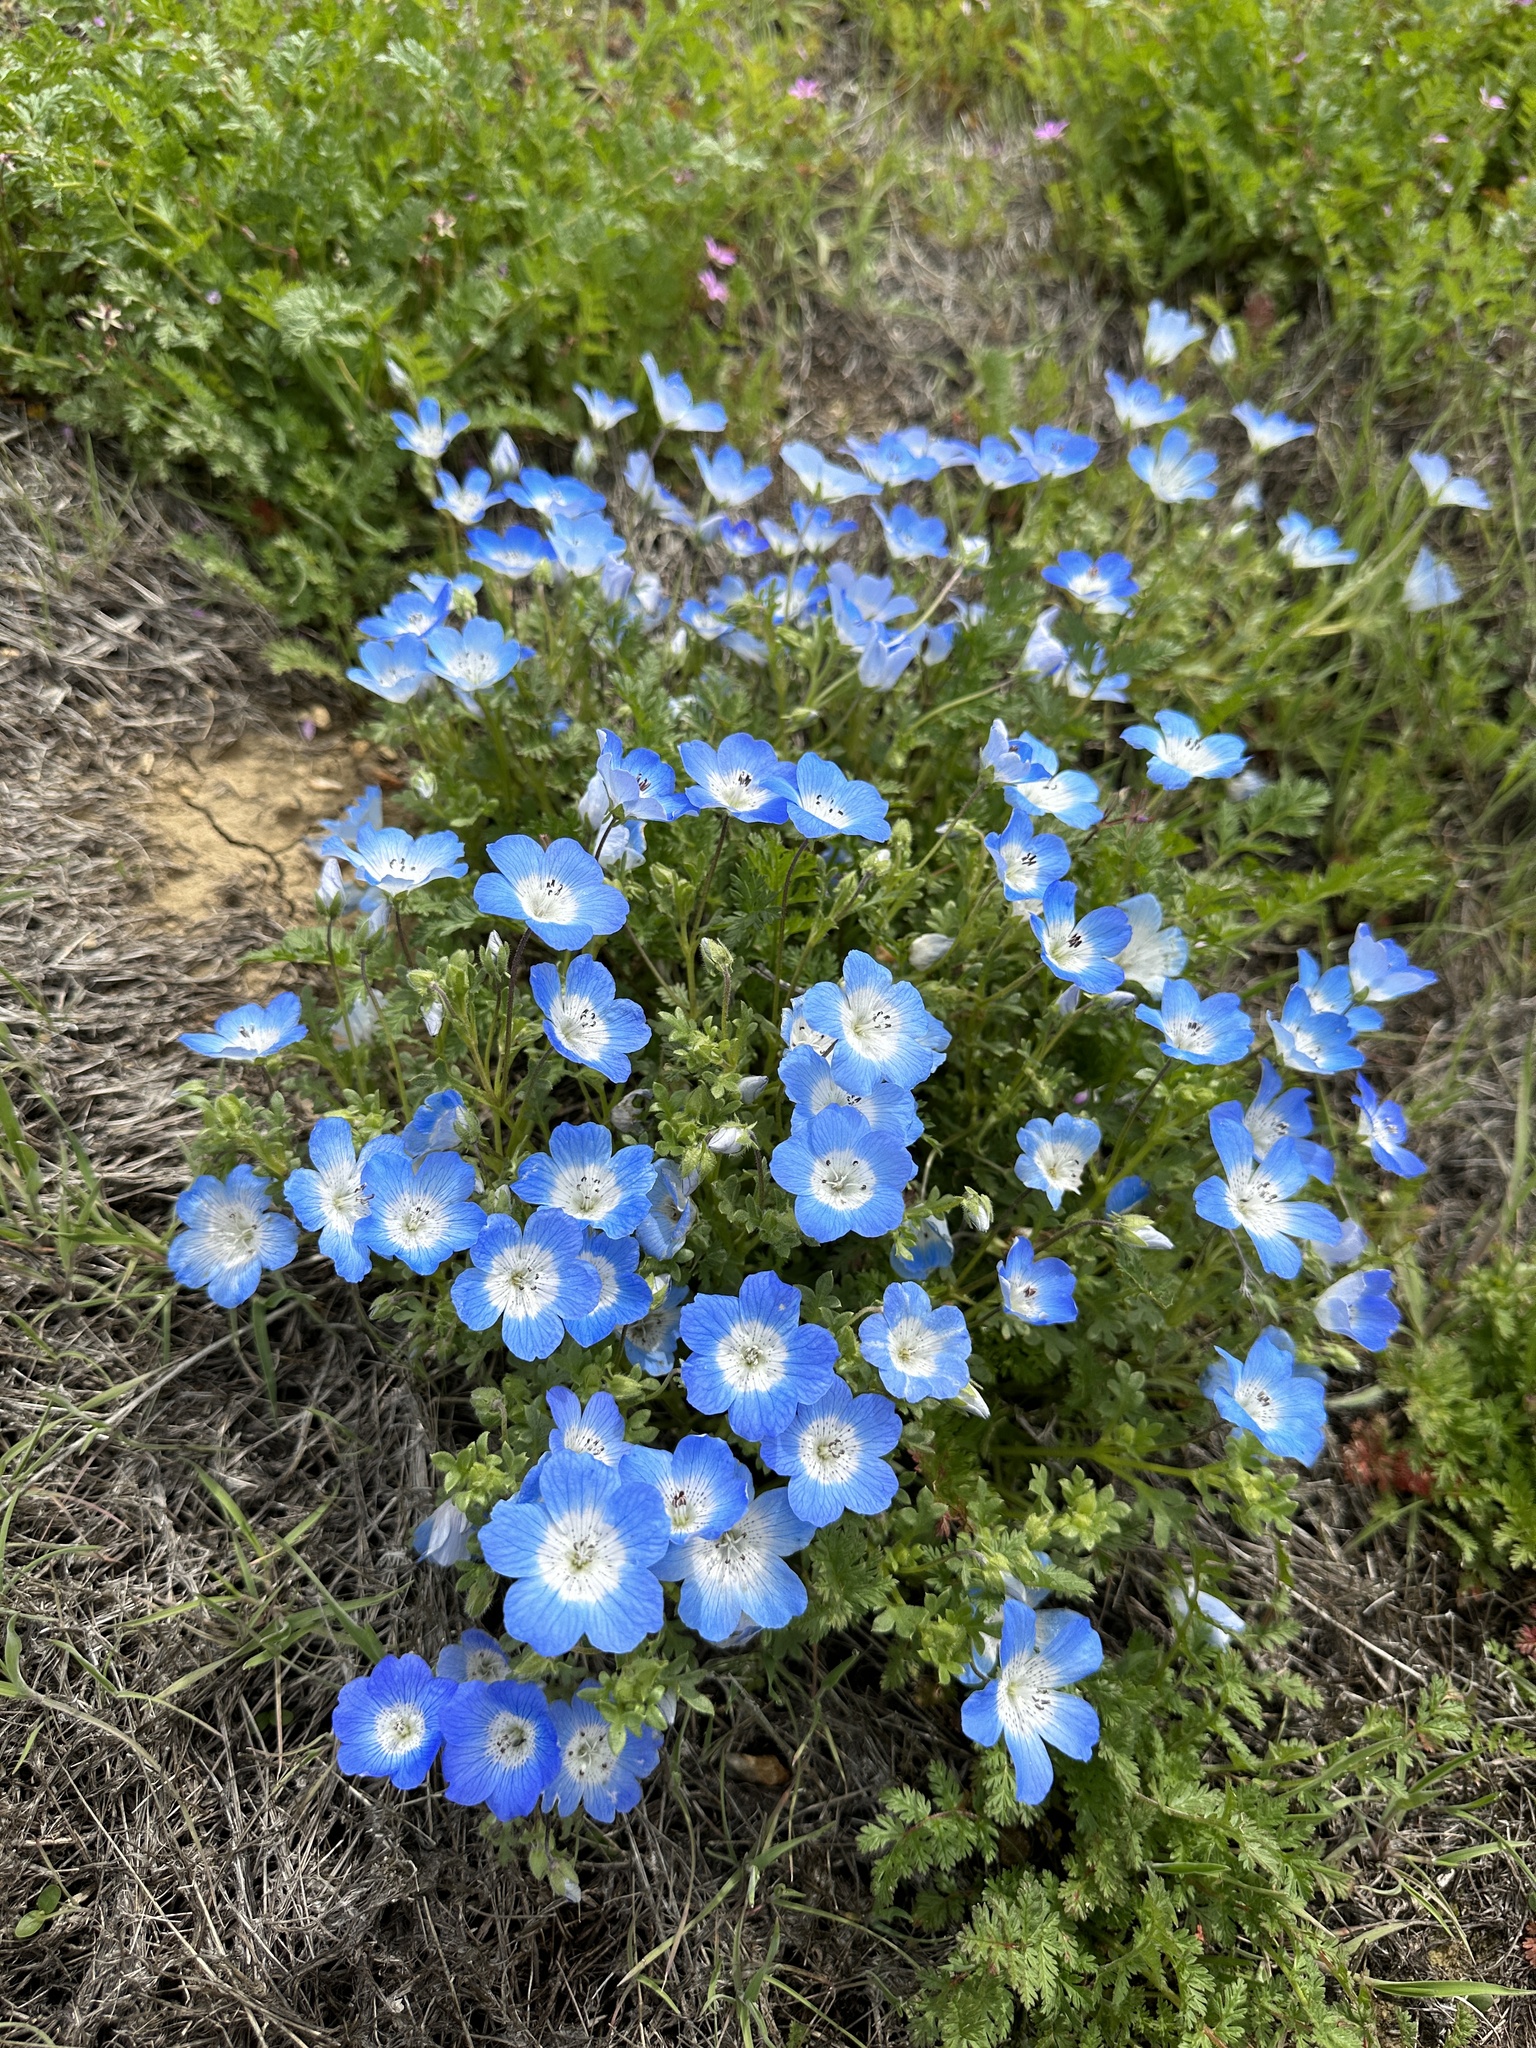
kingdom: Plantae
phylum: Tracheophyta
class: Magnoliopsida
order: Boraginales
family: Hydrophyllaceae
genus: Nemophila
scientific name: Nemophila menziesii
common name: Baby's-blue-eyes
